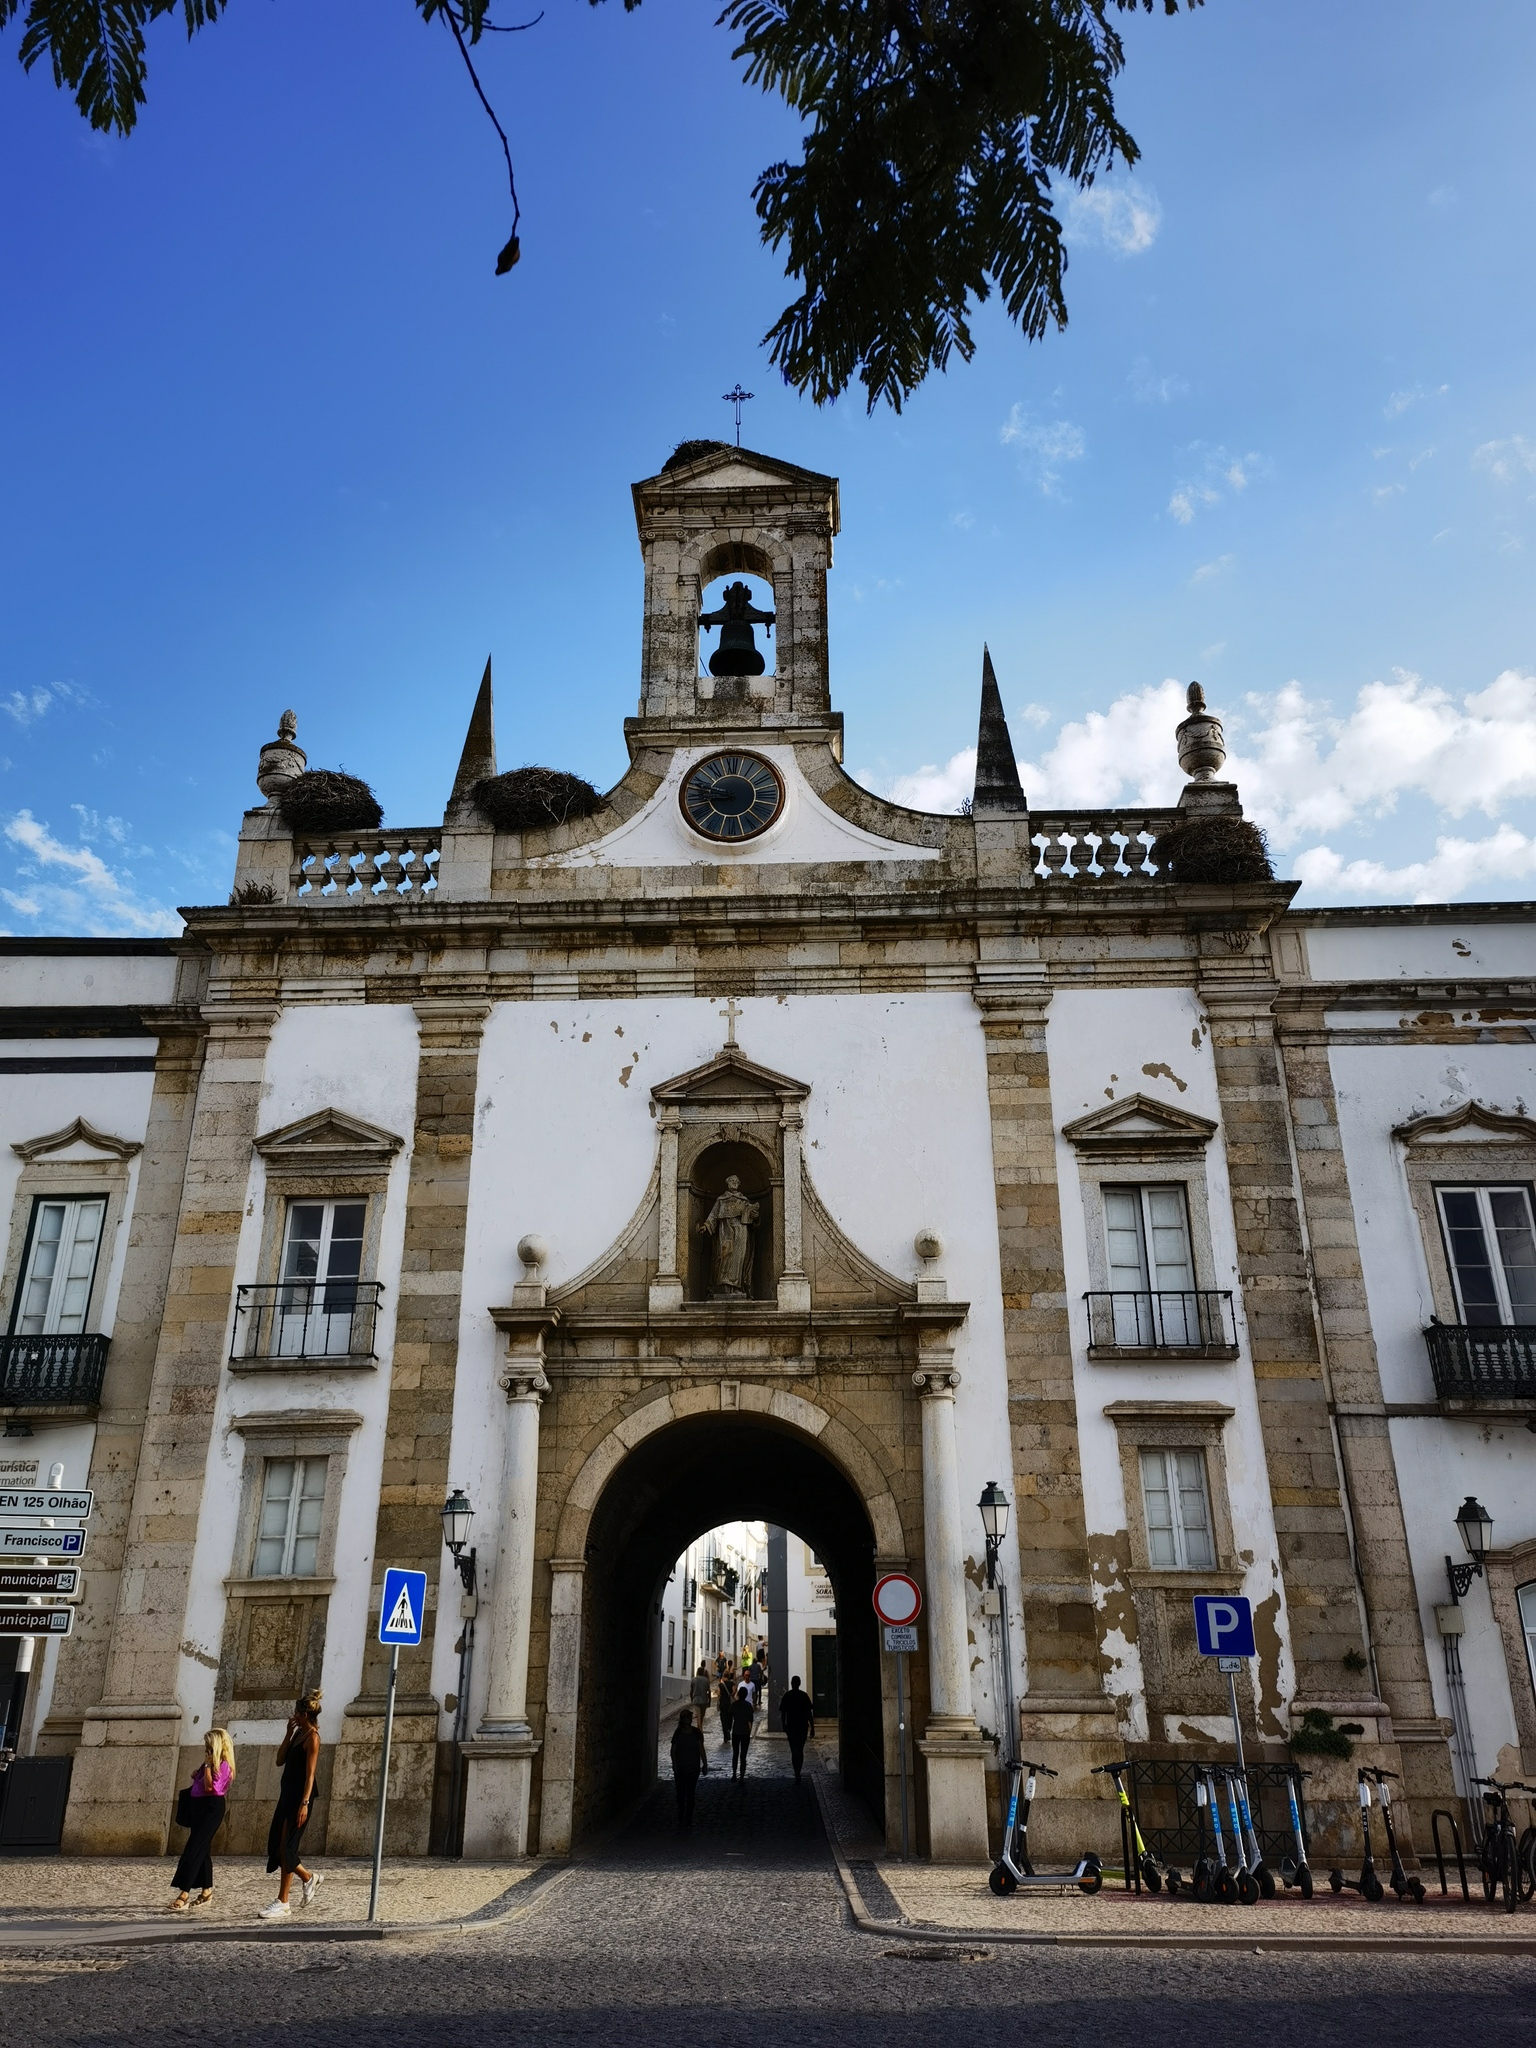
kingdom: Animalia
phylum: Chordata
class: Aves
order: Ciconiiformes
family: Ciconiidae
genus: Ciconia
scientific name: Ciconia ciconia
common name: White stork
